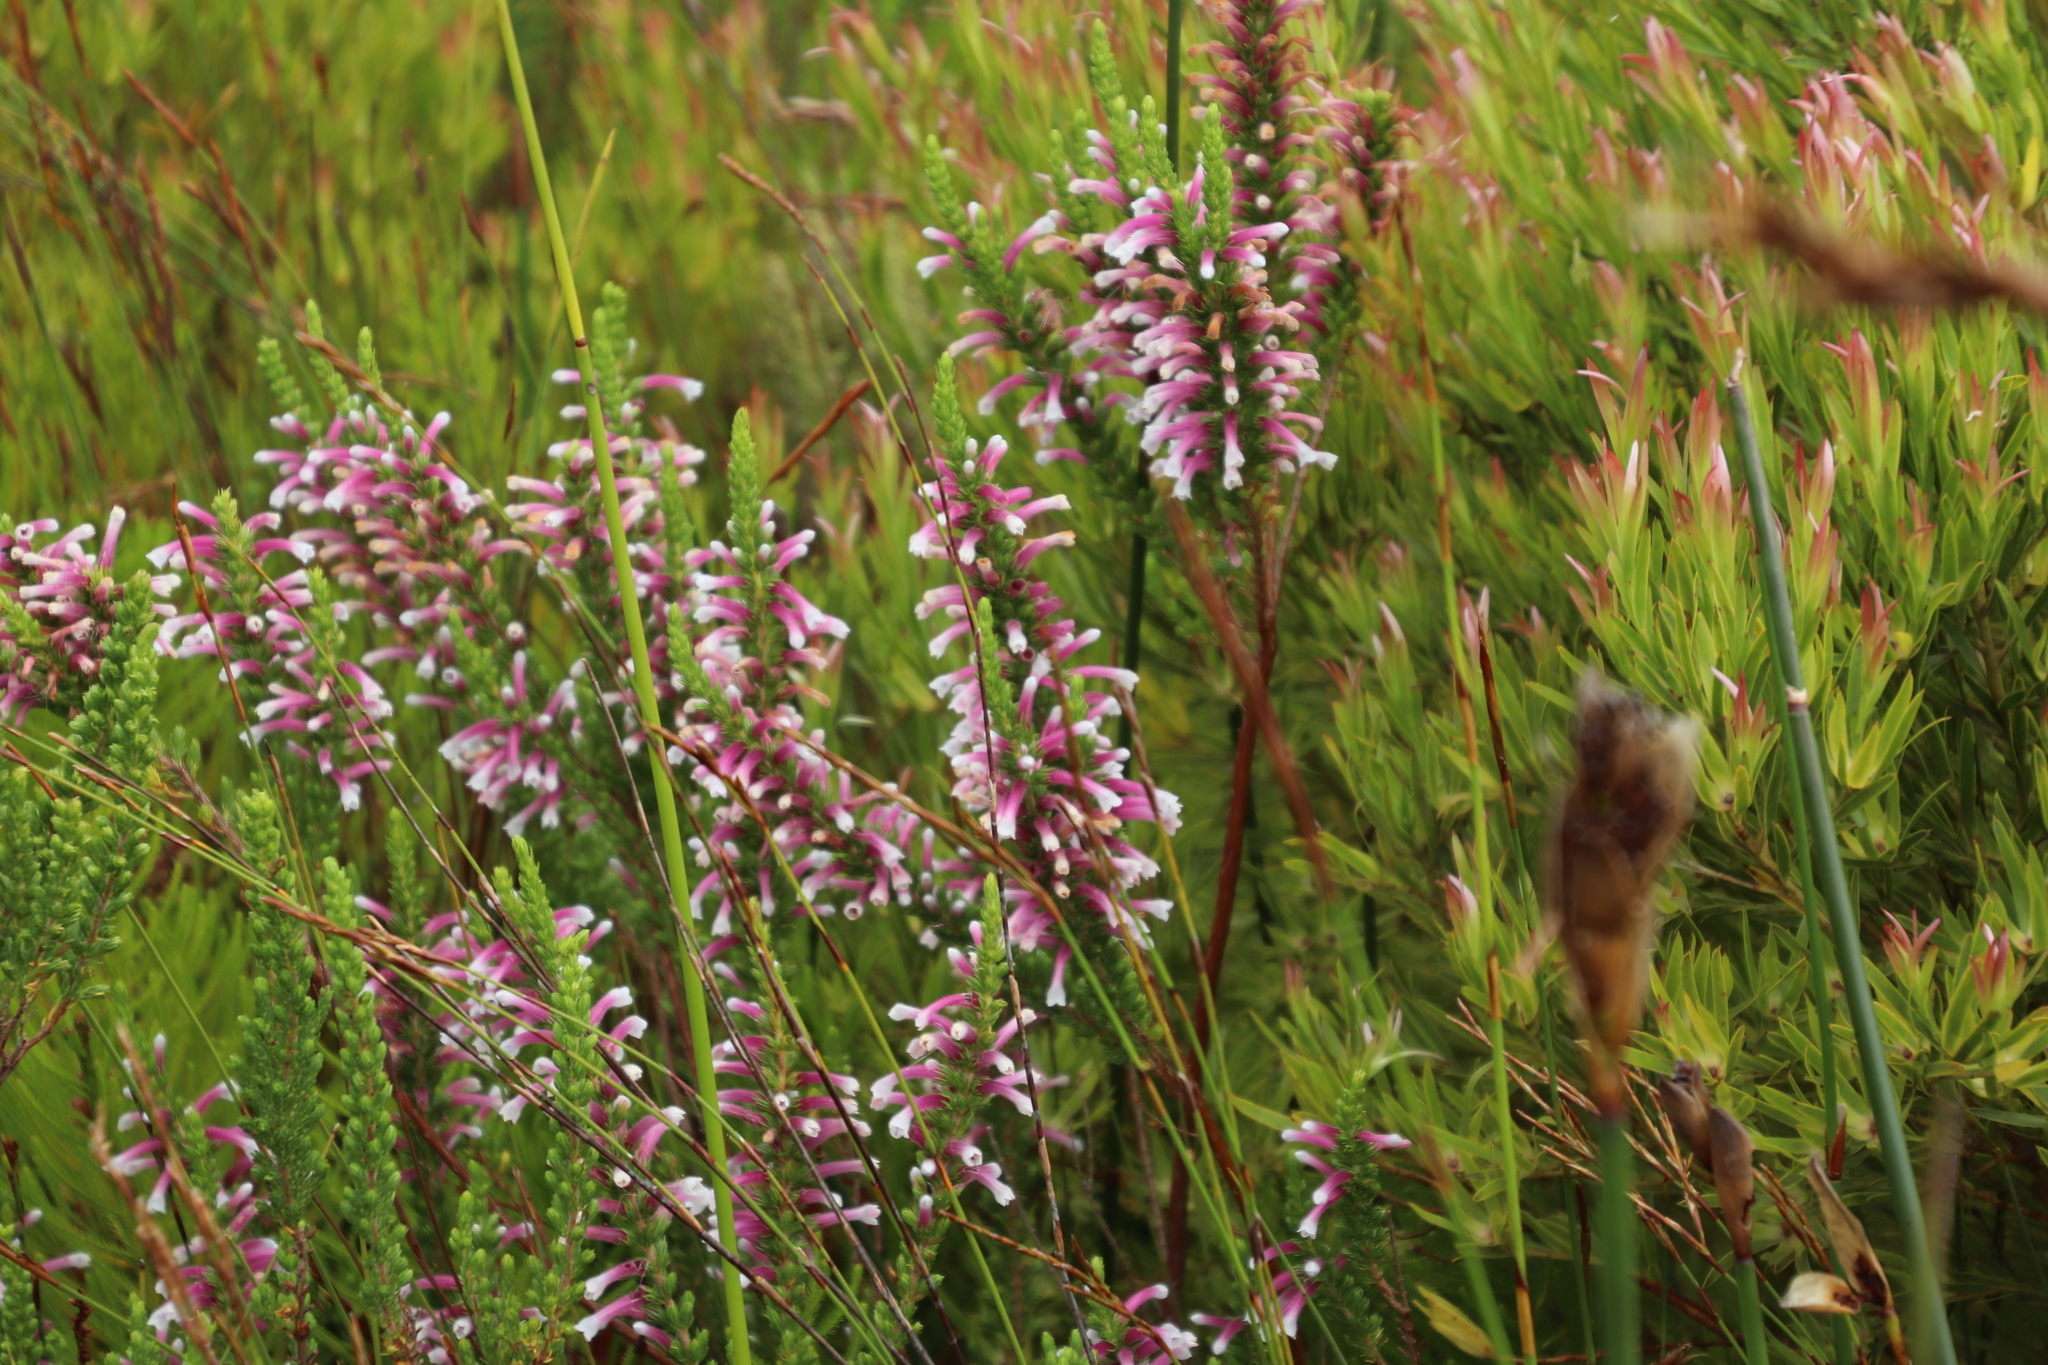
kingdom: Plantae
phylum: Tracheophyta
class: Magnoliopsida
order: Ericales
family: Ericaceae
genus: Erica
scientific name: Erica macowanii
